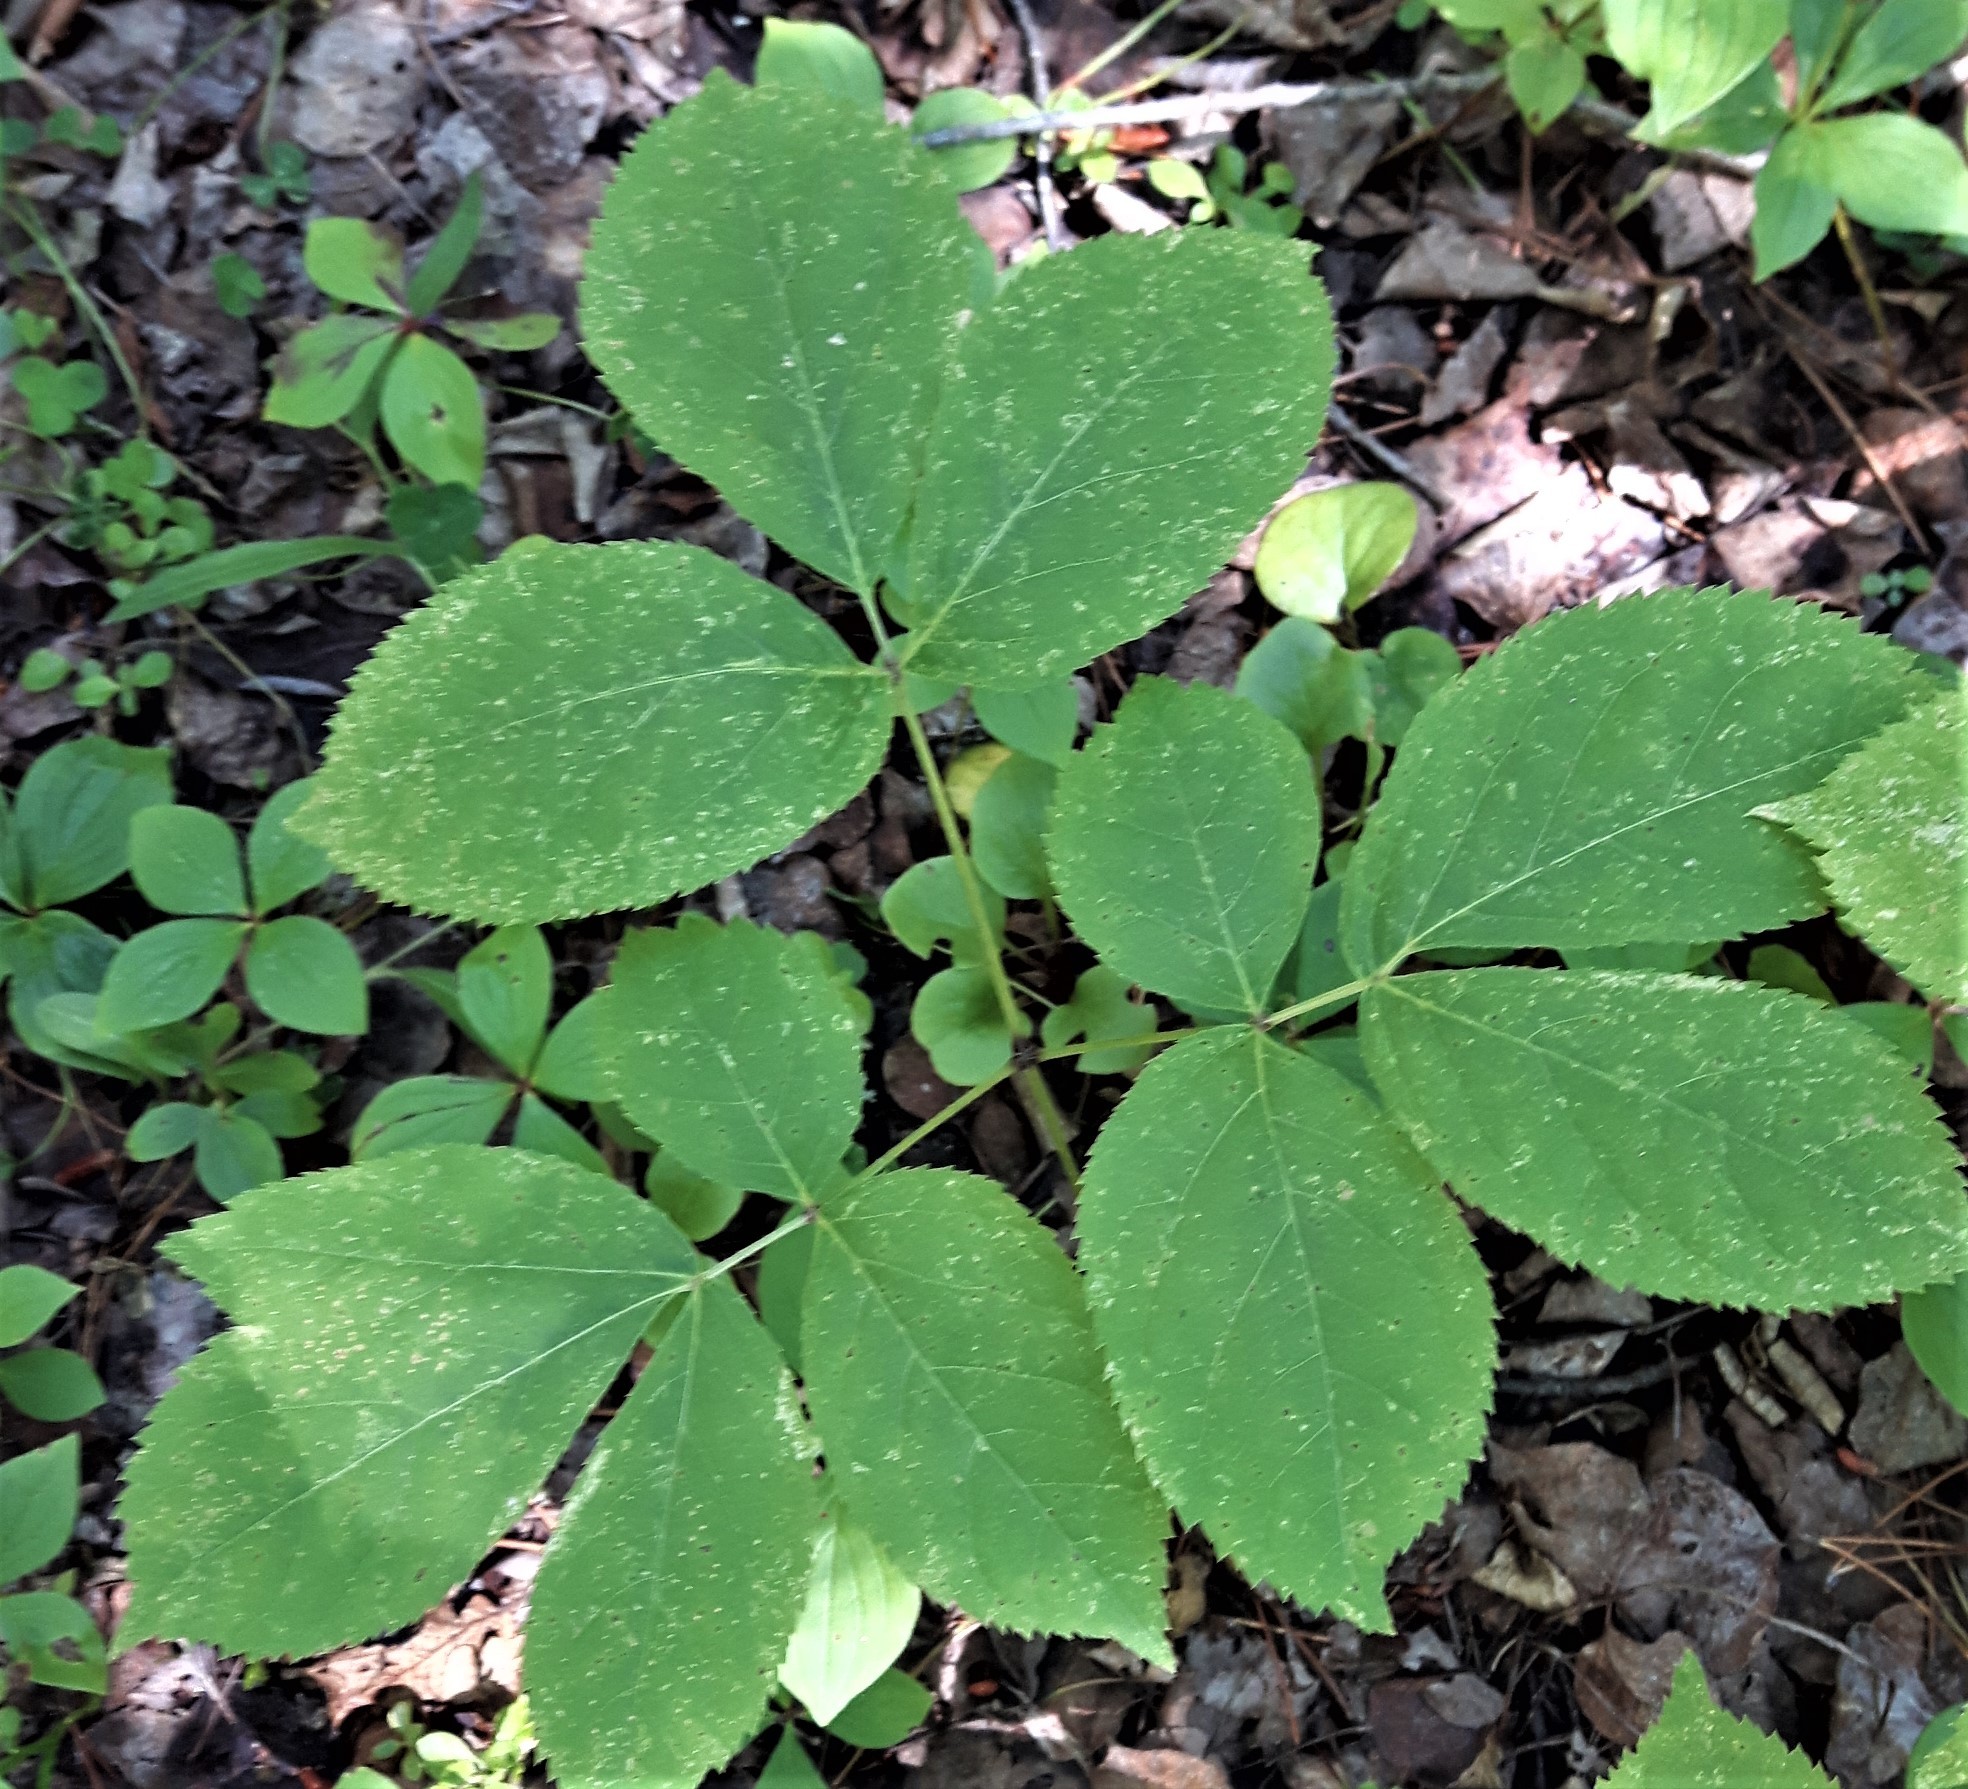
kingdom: Plantae
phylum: Tracheophyta
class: Magnoliopsida
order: Apiales
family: Araliaceae
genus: Aralia
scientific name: Aralia nudicaulis
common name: Wild sarsaparilla
